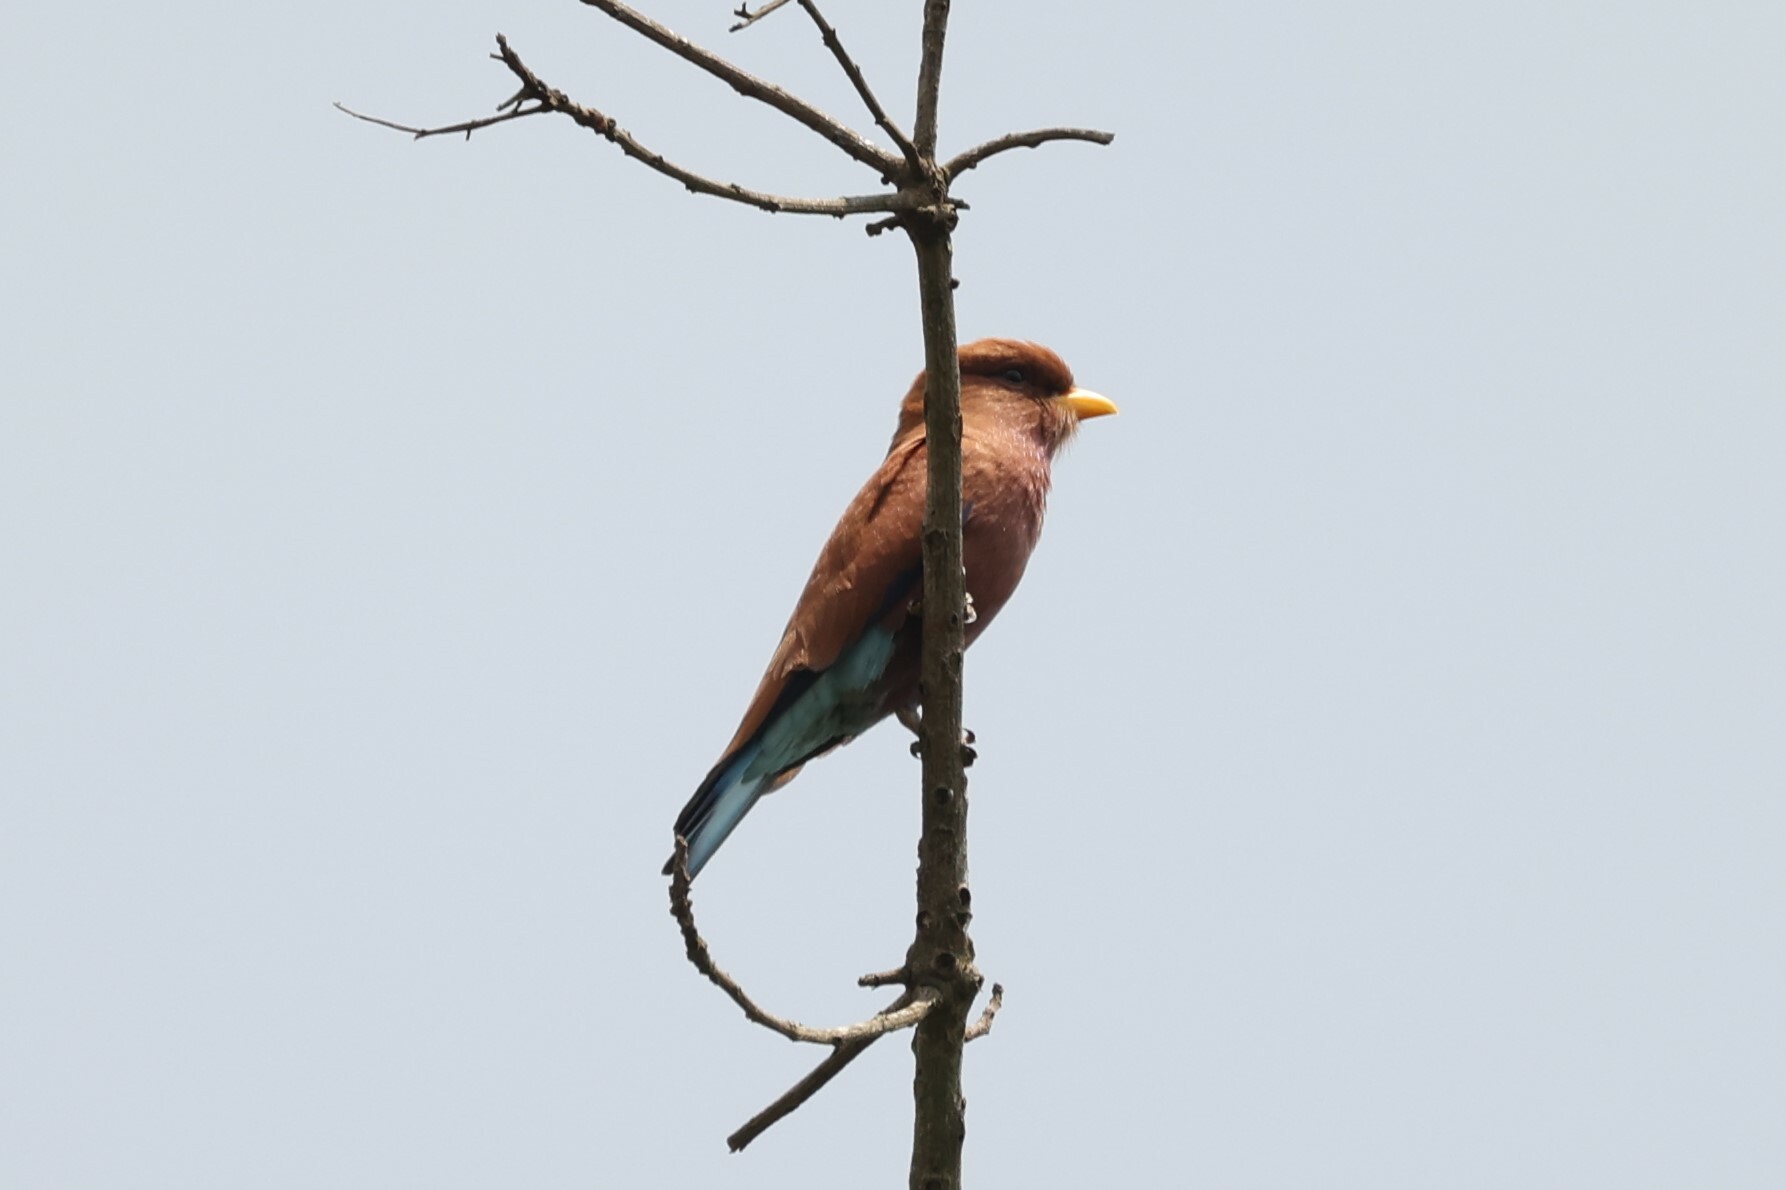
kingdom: Animalia
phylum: Chordata
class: Aves
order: Coraciiformes
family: Coraciidae
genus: Eurystomus
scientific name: Eurystomus glaucurus
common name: Broad-billed roller
